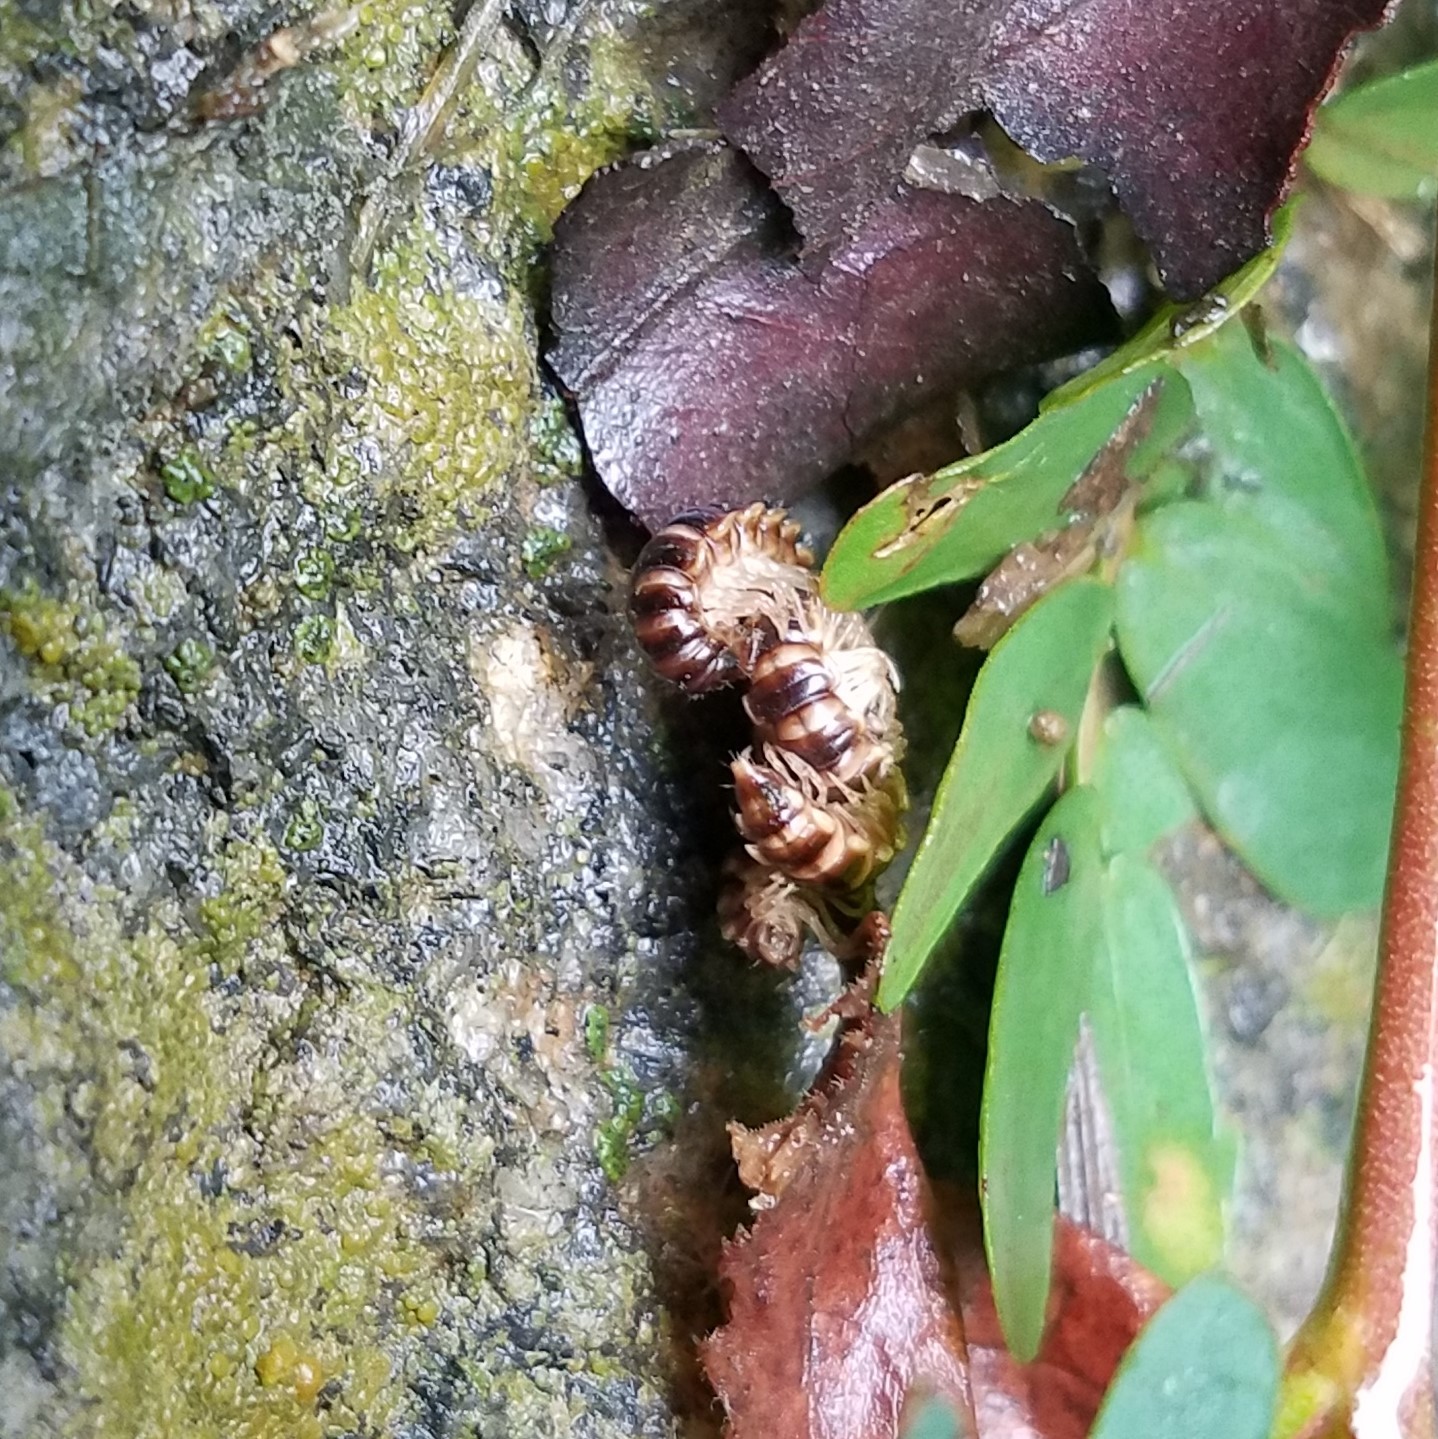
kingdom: Animalia
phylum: Arthropoda
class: Diplopoda
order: Polydesmida
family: Paradoxosomatidae
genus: Oxidus
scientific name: Oxidus gracilis
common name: Greenhouse millipede
